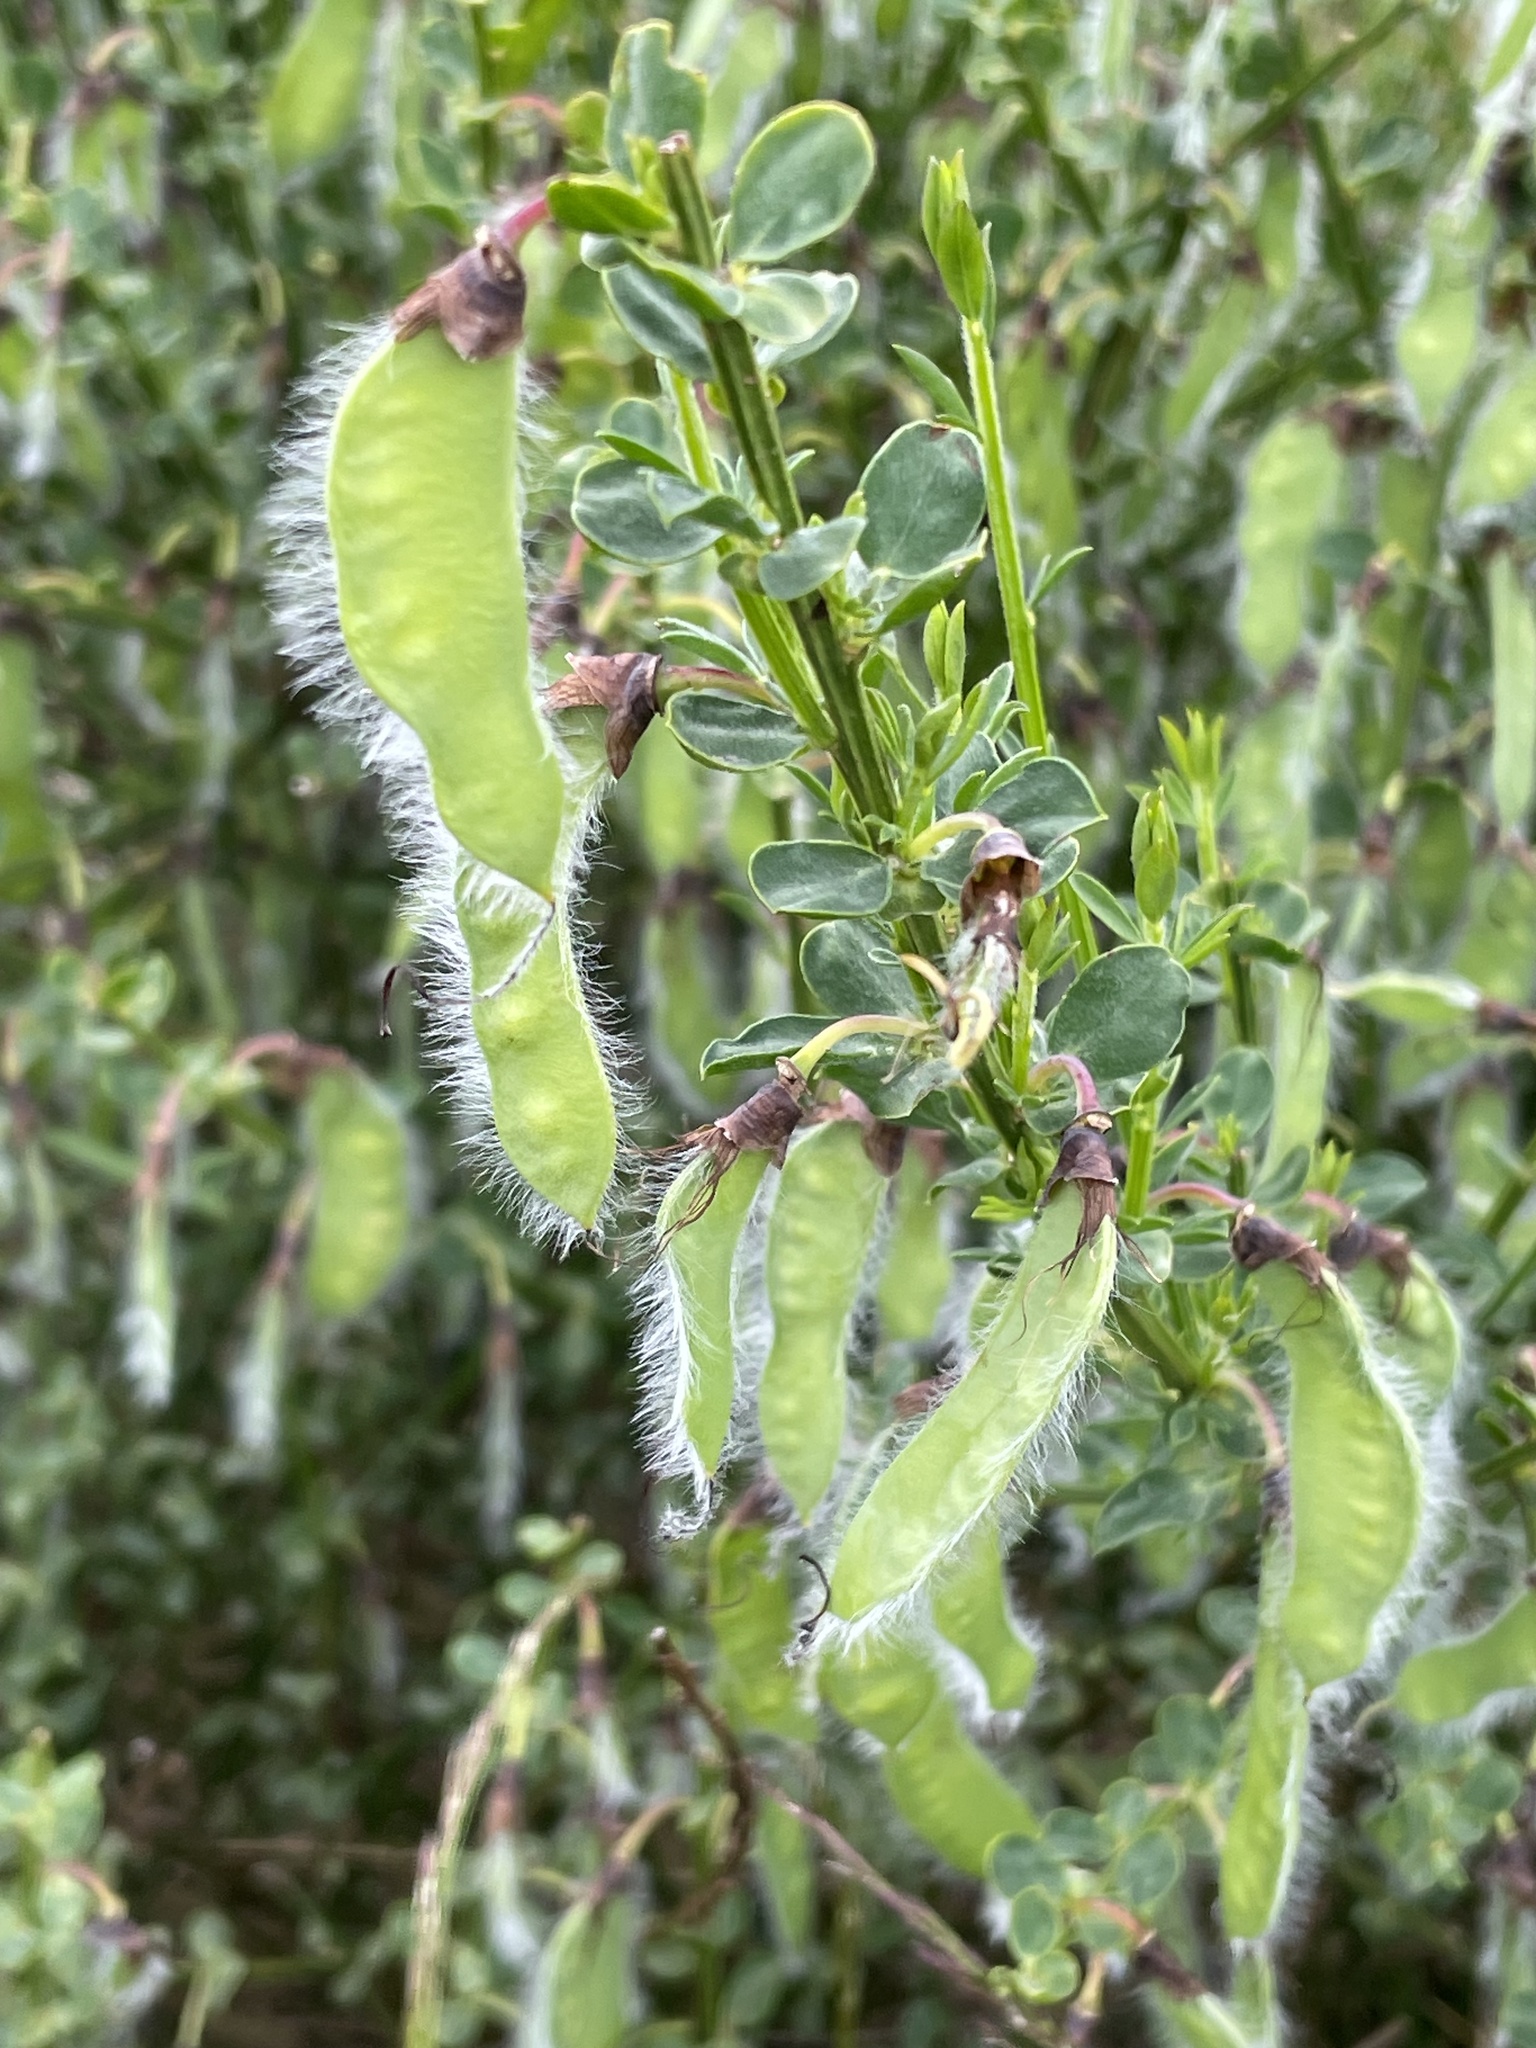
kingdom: Plantae
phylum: Tracheophyta
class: Magnoliopsida
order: Fabales
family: Fabaceae
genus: Cytisus
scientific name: Cytisus scoparius
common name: Scotch broom
